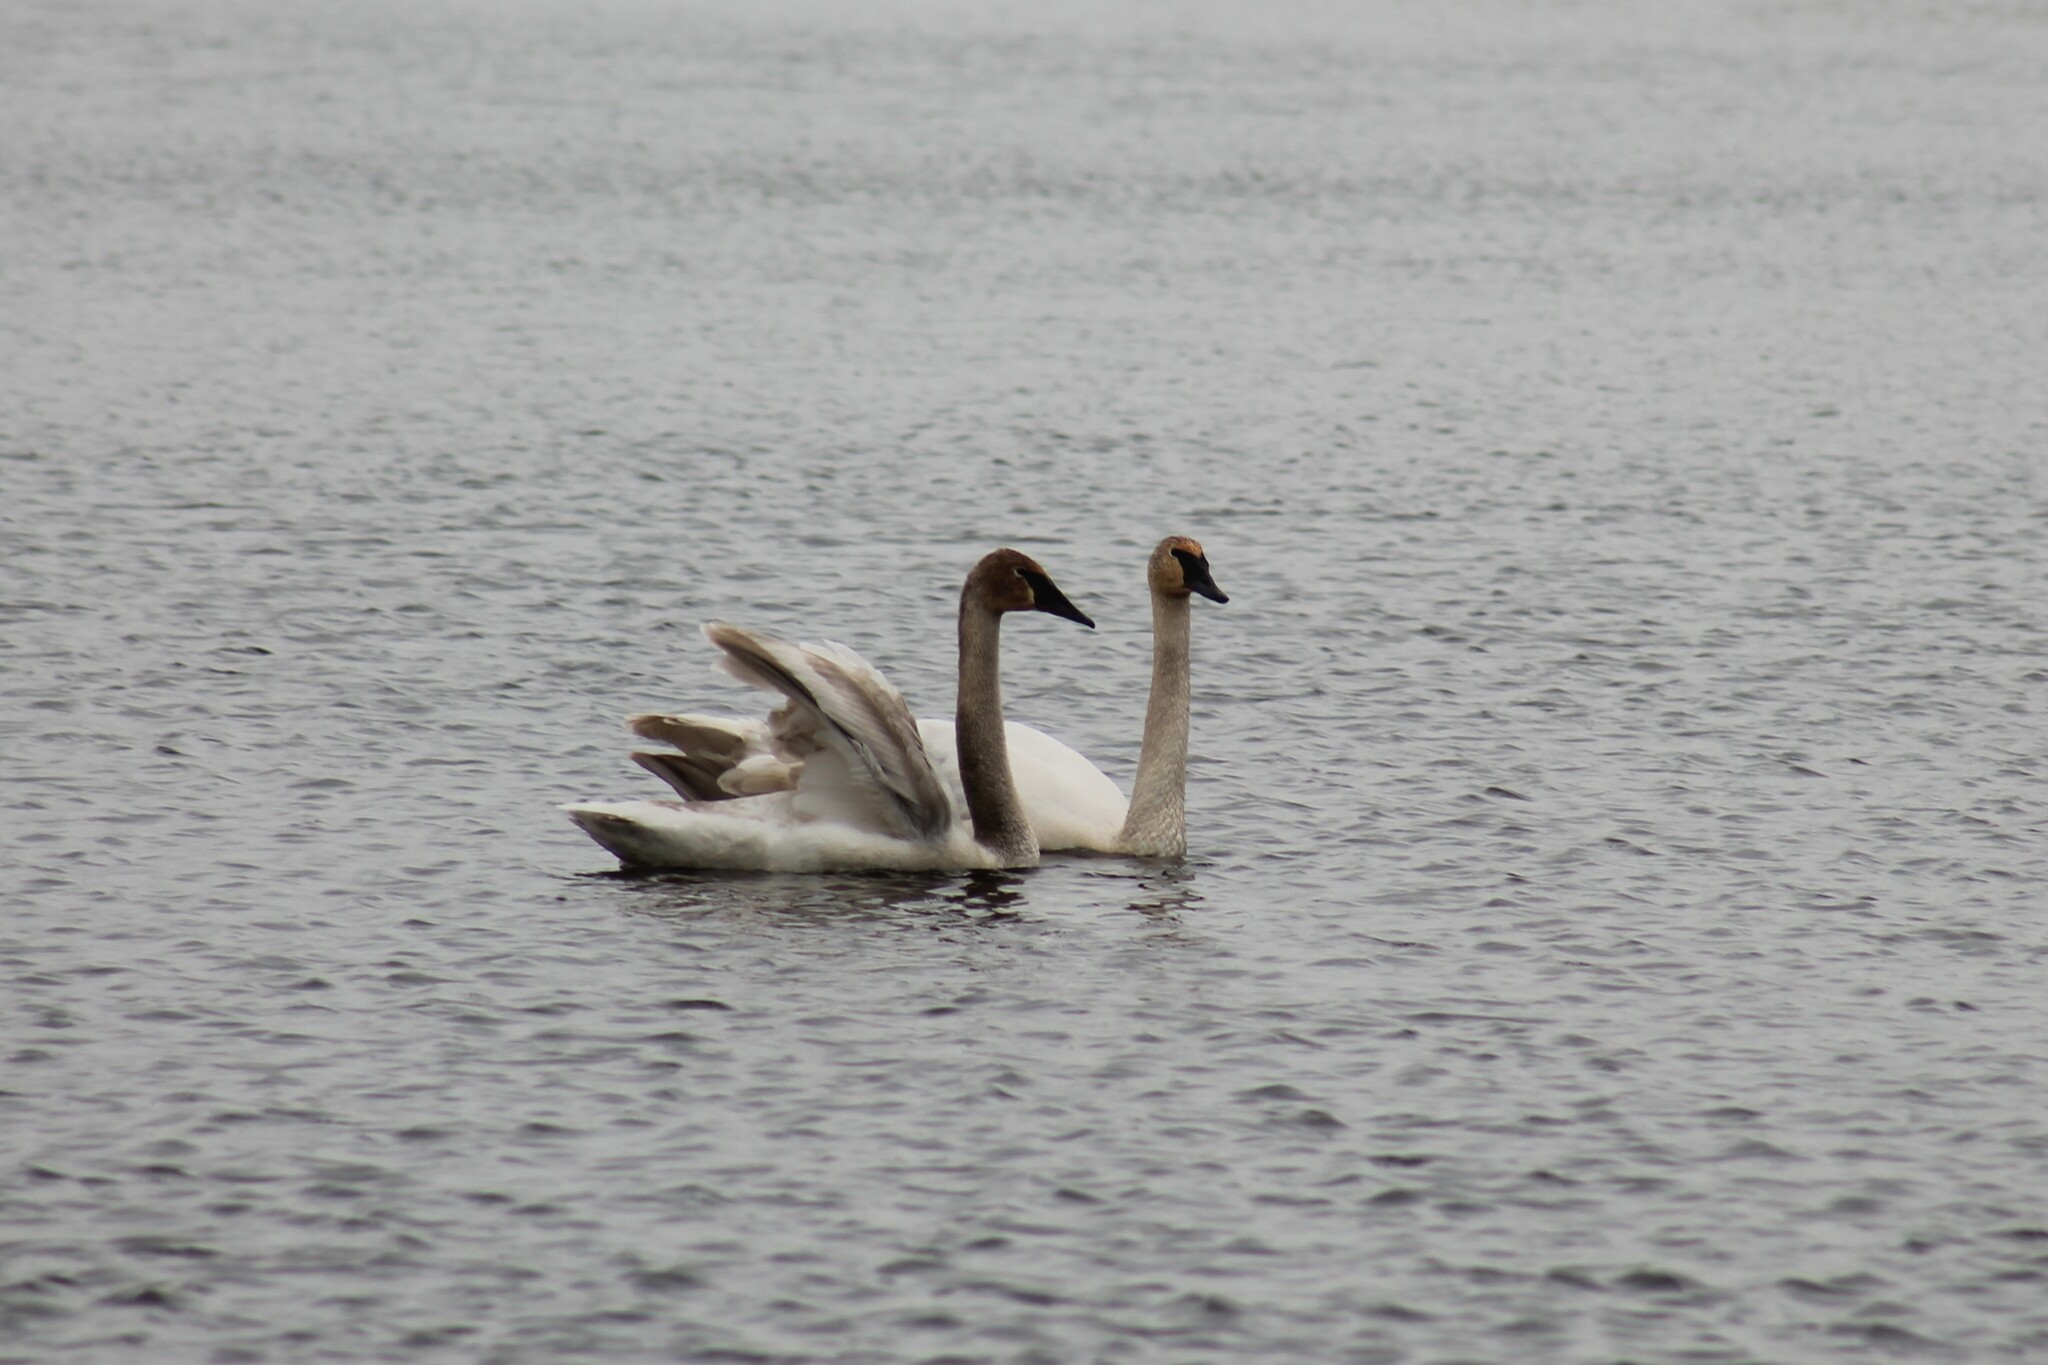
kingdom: Animalia
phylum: Chordata
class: Aves
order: Anseriformes
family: Anatidae
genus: Cygnus
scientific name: Cygnus buccinator
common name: Trumpeter swan
